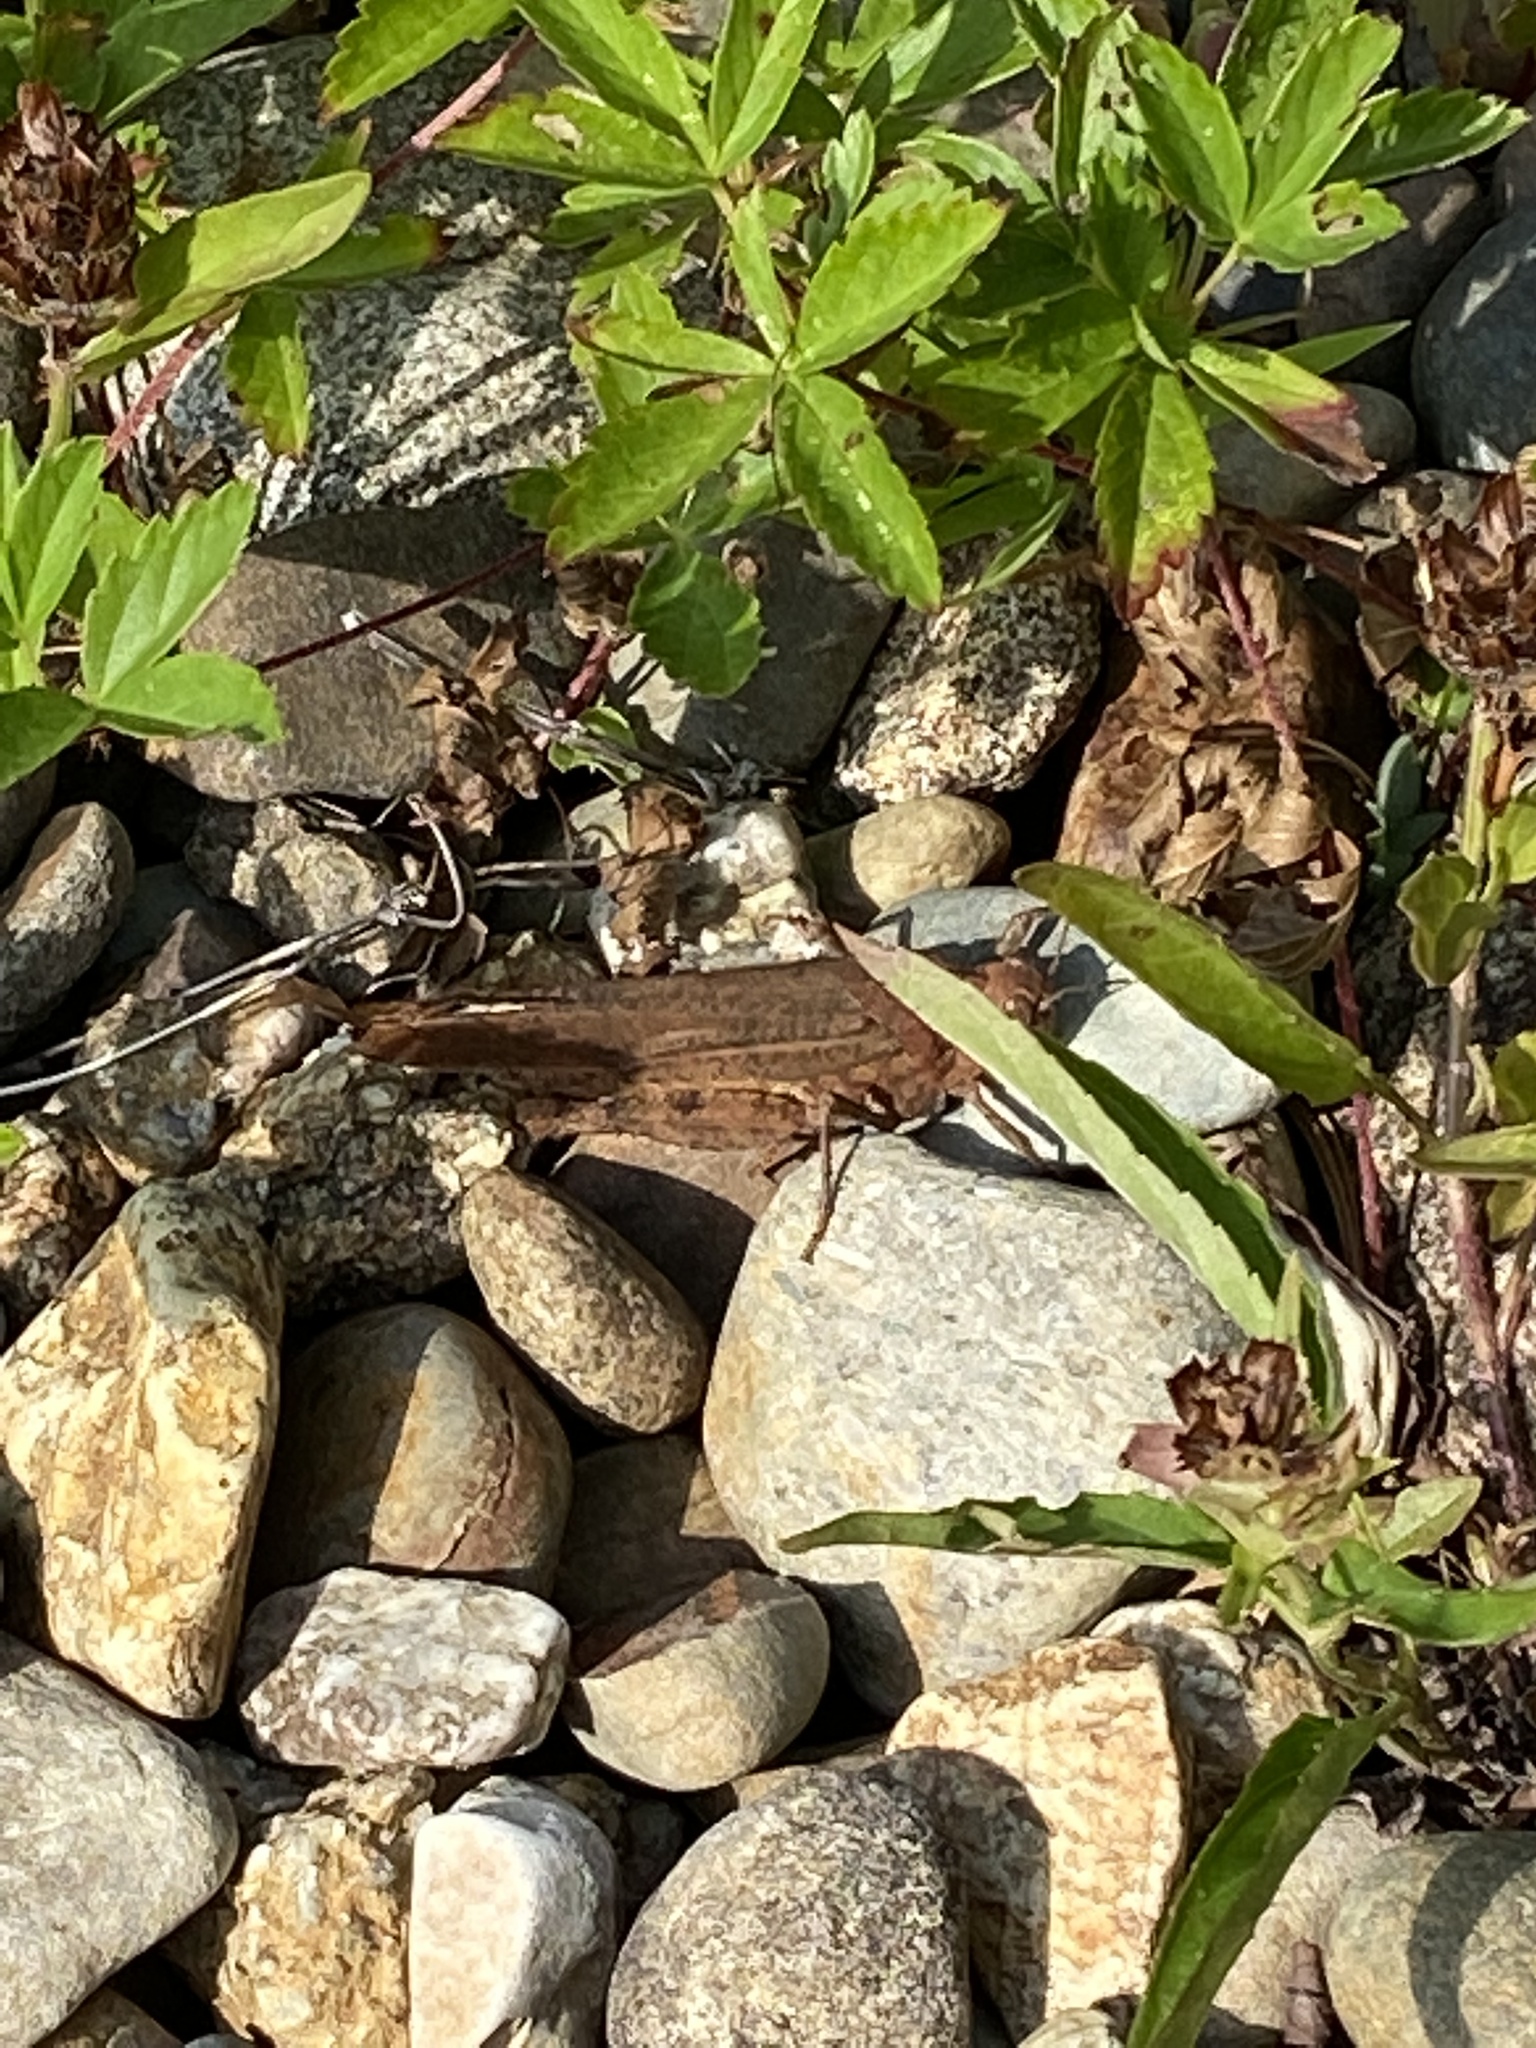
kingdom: Animalia
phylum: Arthropoda
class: Insecta
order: Orthoptera
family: Acrididae
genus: Dissosteira
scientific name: Dissosteira carolina
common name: Carolina grasshopper
